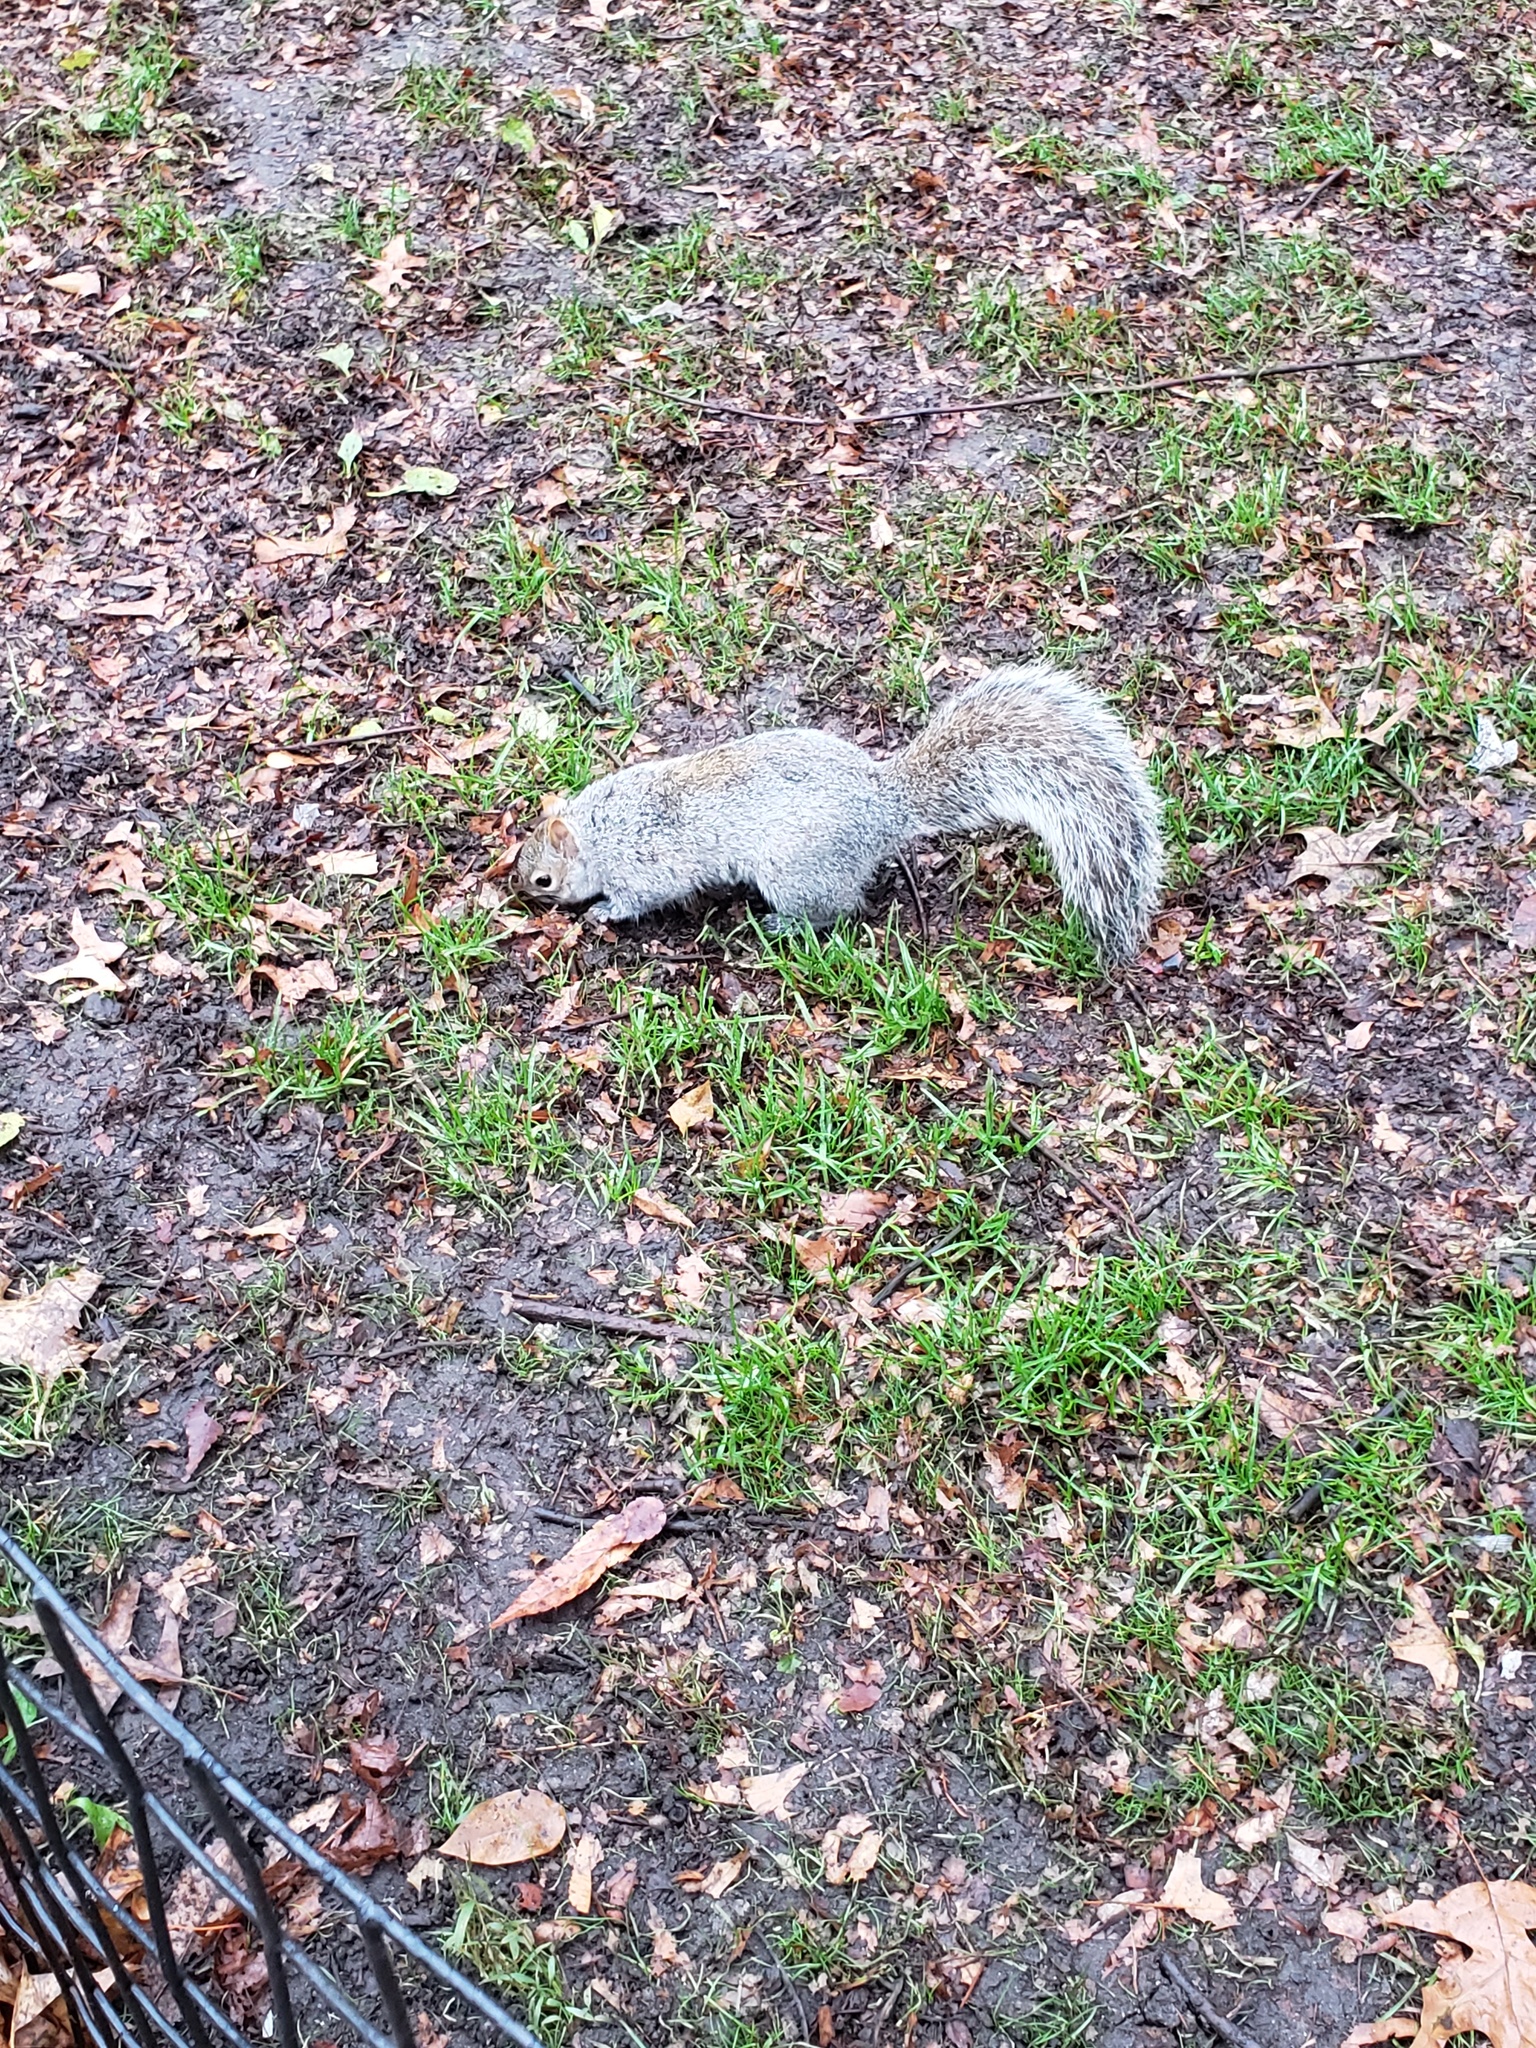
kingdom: Animalia
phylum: Chordata
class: Mammalia
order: Rodentia
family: Sciuridae
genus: Sciurus
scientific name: Sciurus carolinensis
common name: Eastern gray squirrel
